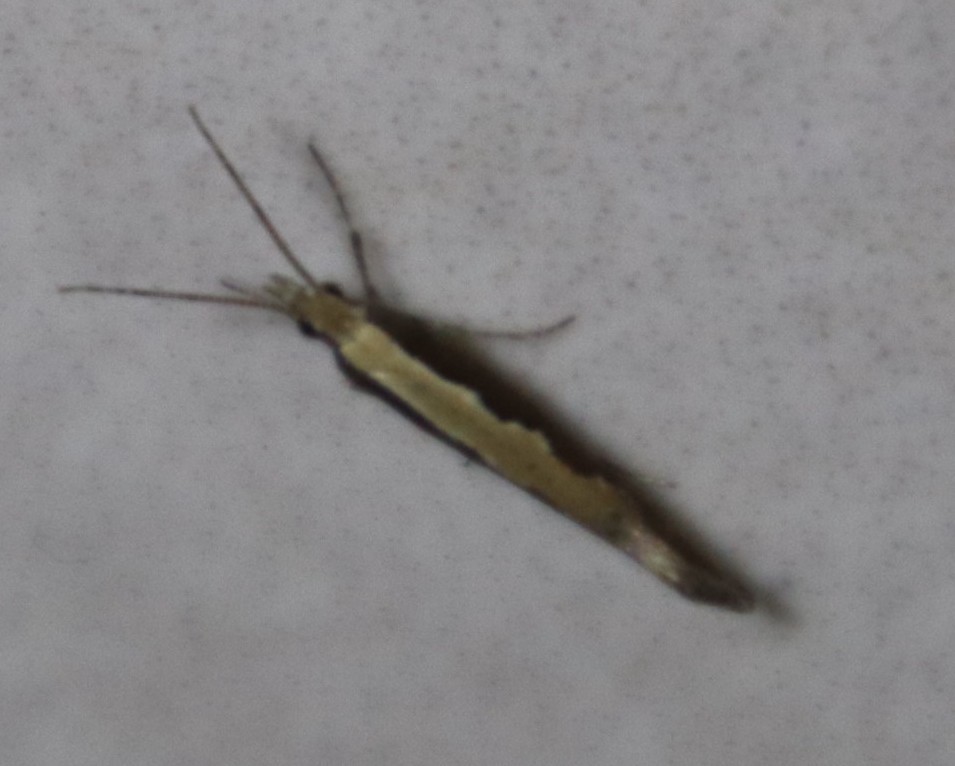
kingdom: Animalia
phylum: Arthropoda
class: Insecta
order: Lepidoptera
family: Plutellidae
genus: Plutella
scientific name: Plutella xylostella
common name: Diamond-back moth
